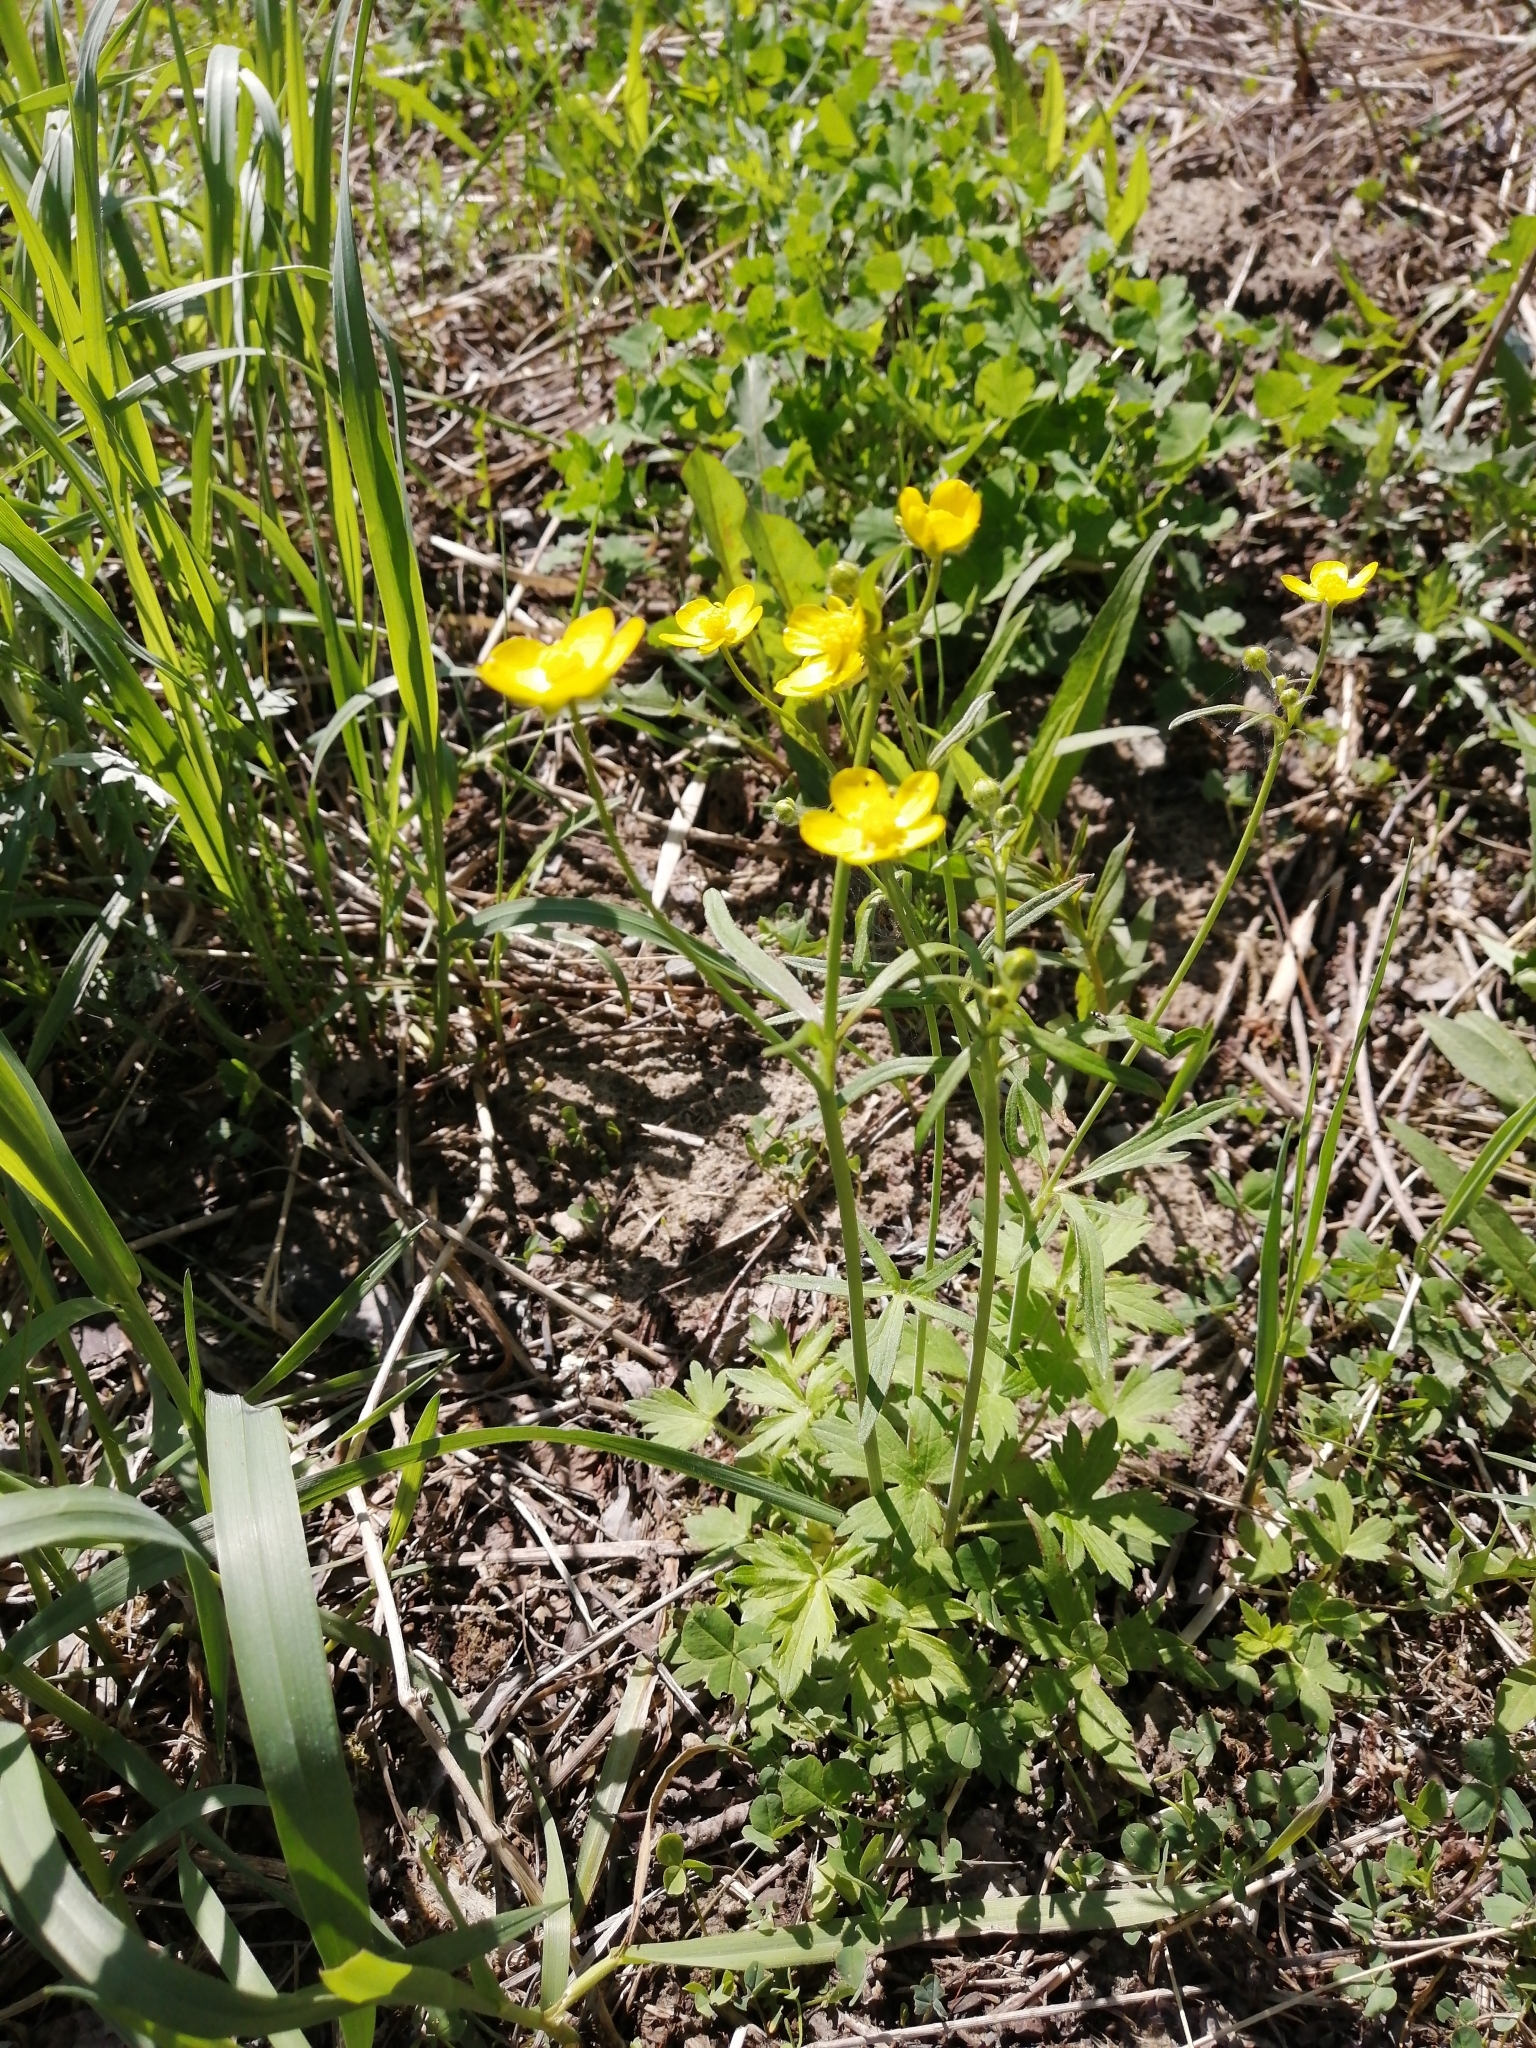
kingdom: Plantae
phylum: Tracheophyta
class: Magnoliopsida
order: Ranunculales
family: Ranunculaceae
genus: Ranunculus
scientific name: Ranunculus propinquus
